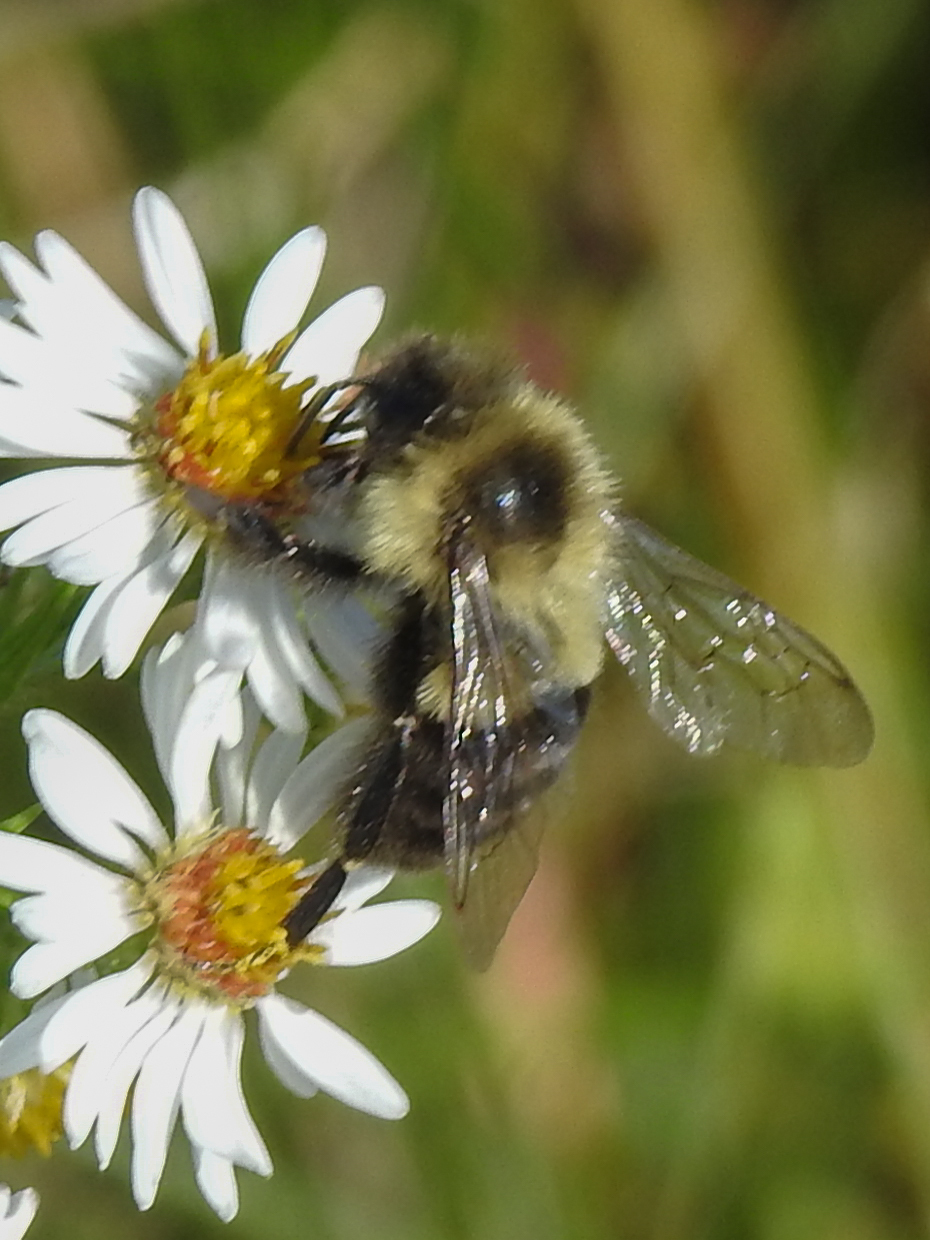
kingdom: Animalia
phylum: Arthropoda
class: Insecta
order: Hymenoptera
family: Apidae
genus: Bombus
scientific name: Bombus impatiens
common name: Common eastern bumble bee
